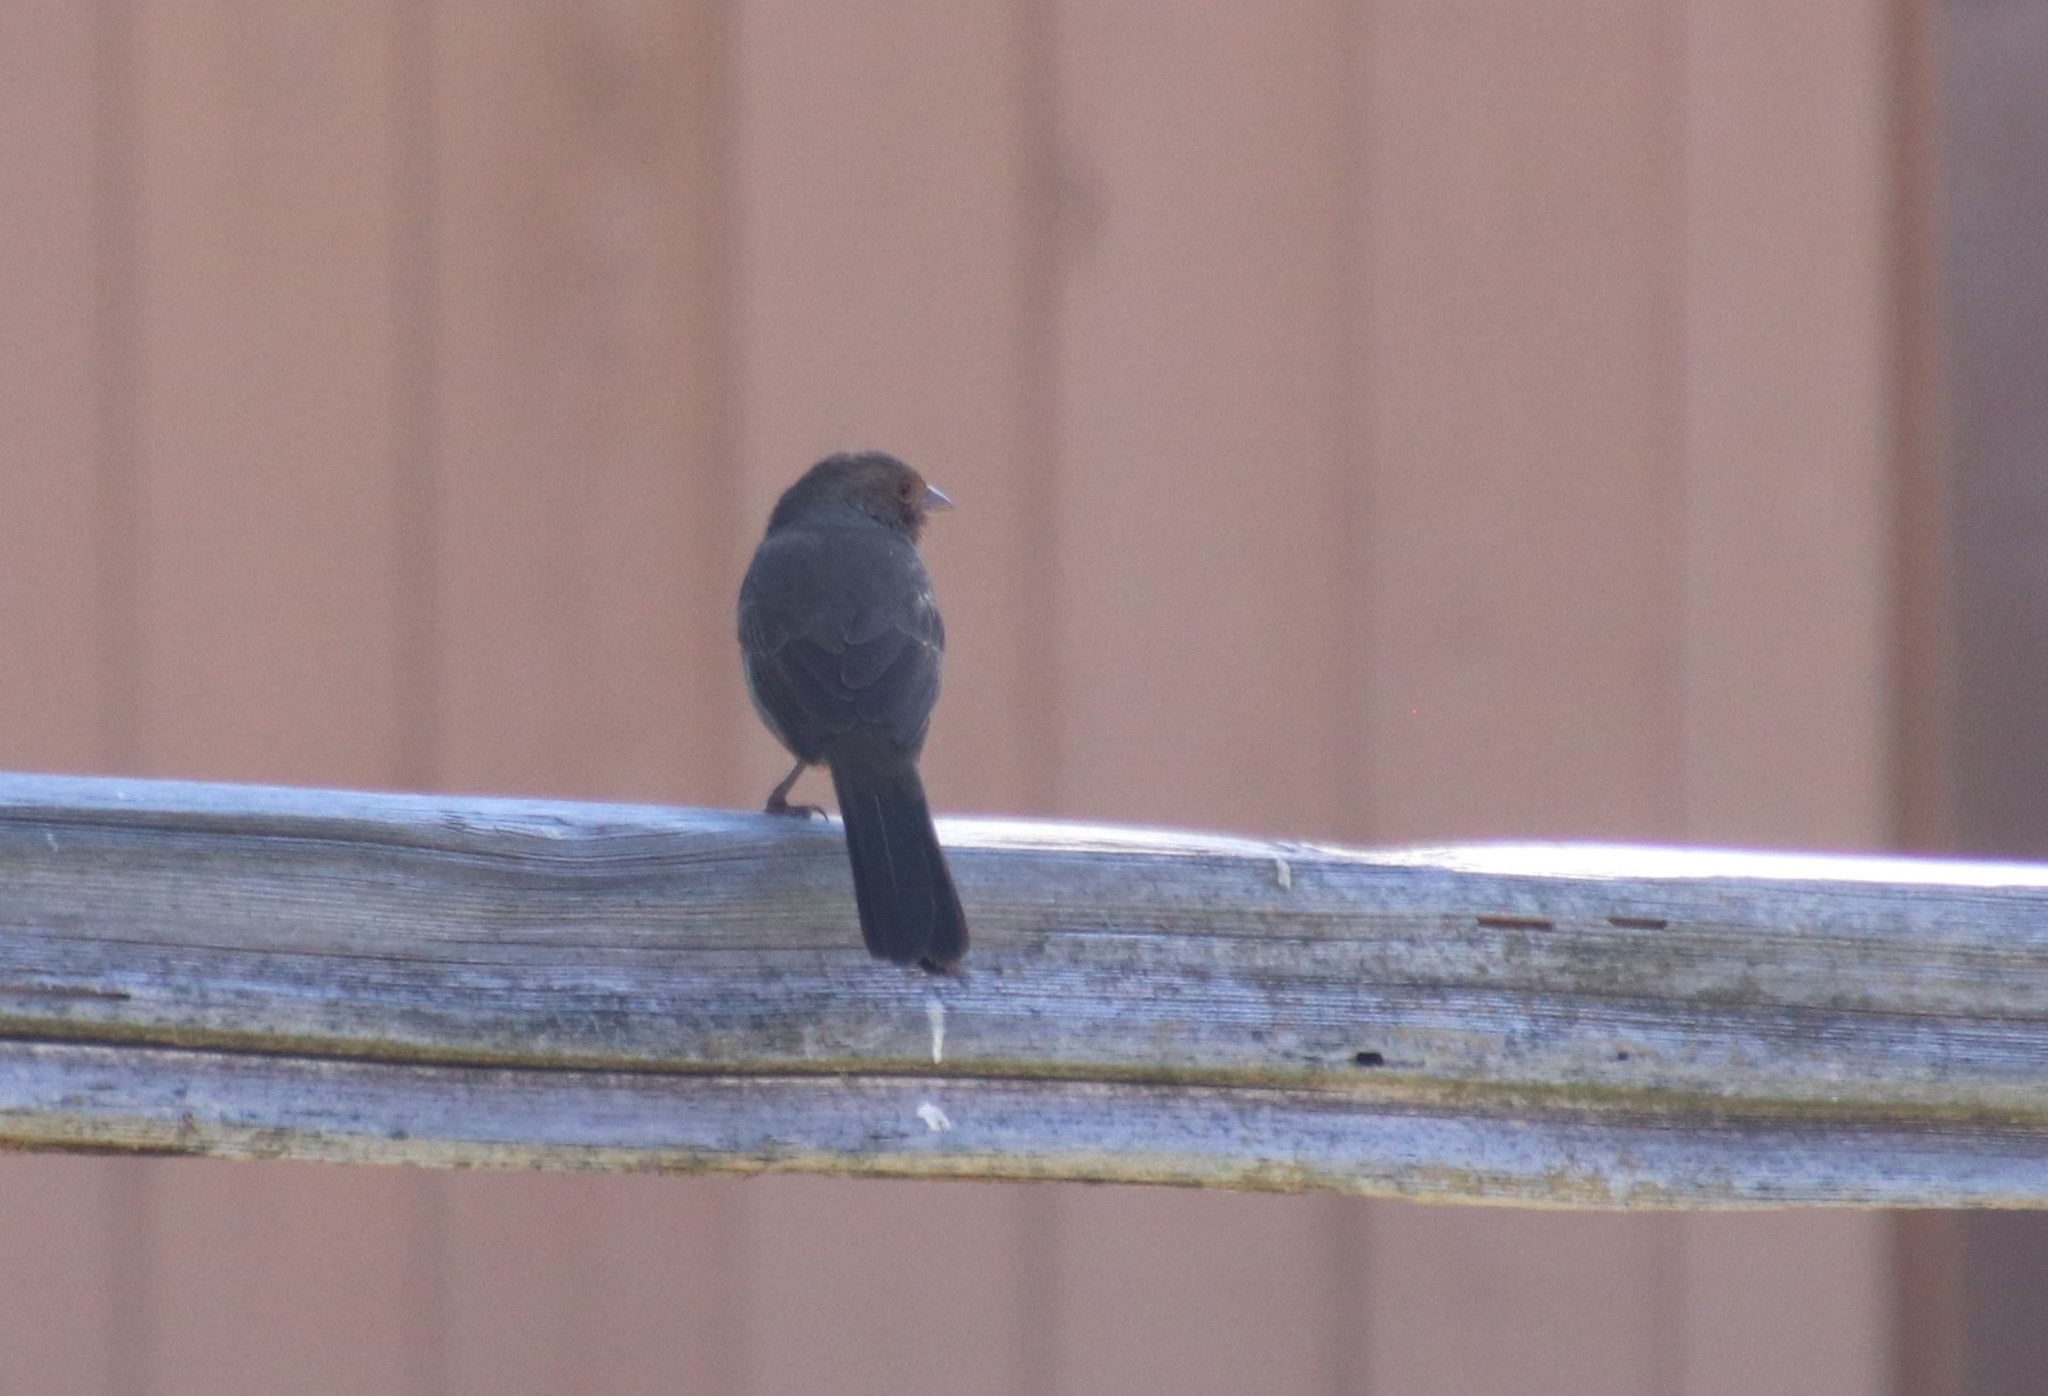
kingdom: Animalia
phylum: Chordata
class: Aves
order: Passeriformes
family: Passerellidae
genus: Melozone
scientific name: Melozone crissalis
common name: California towhee
